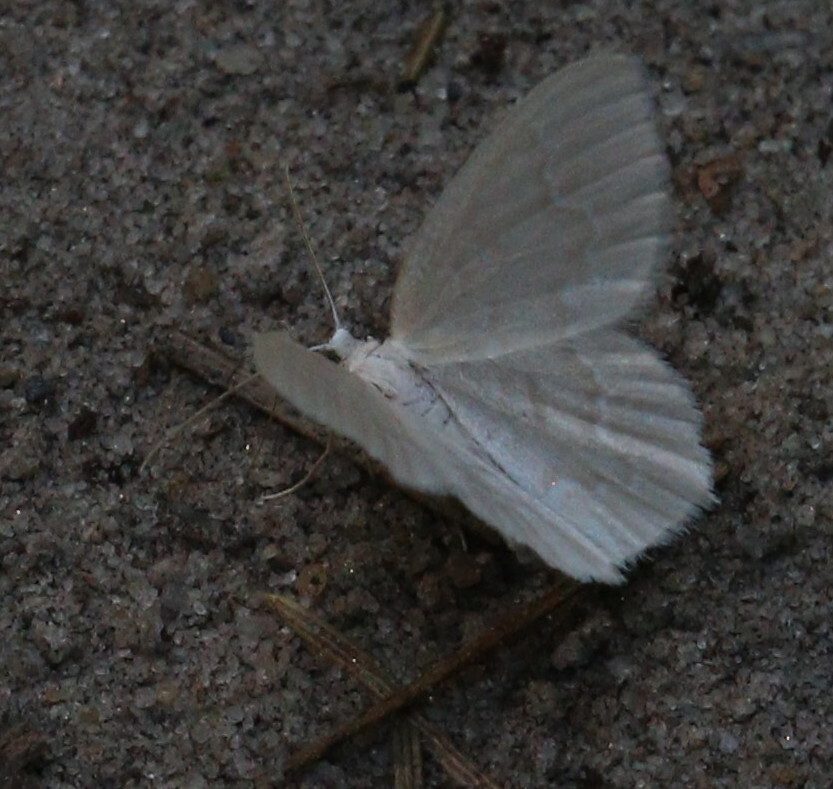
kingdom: Animalia
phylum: Arthropoda
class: Insecta
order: Lepidoptera
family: Geometridae
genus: Jodis
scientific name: Jodis putata
